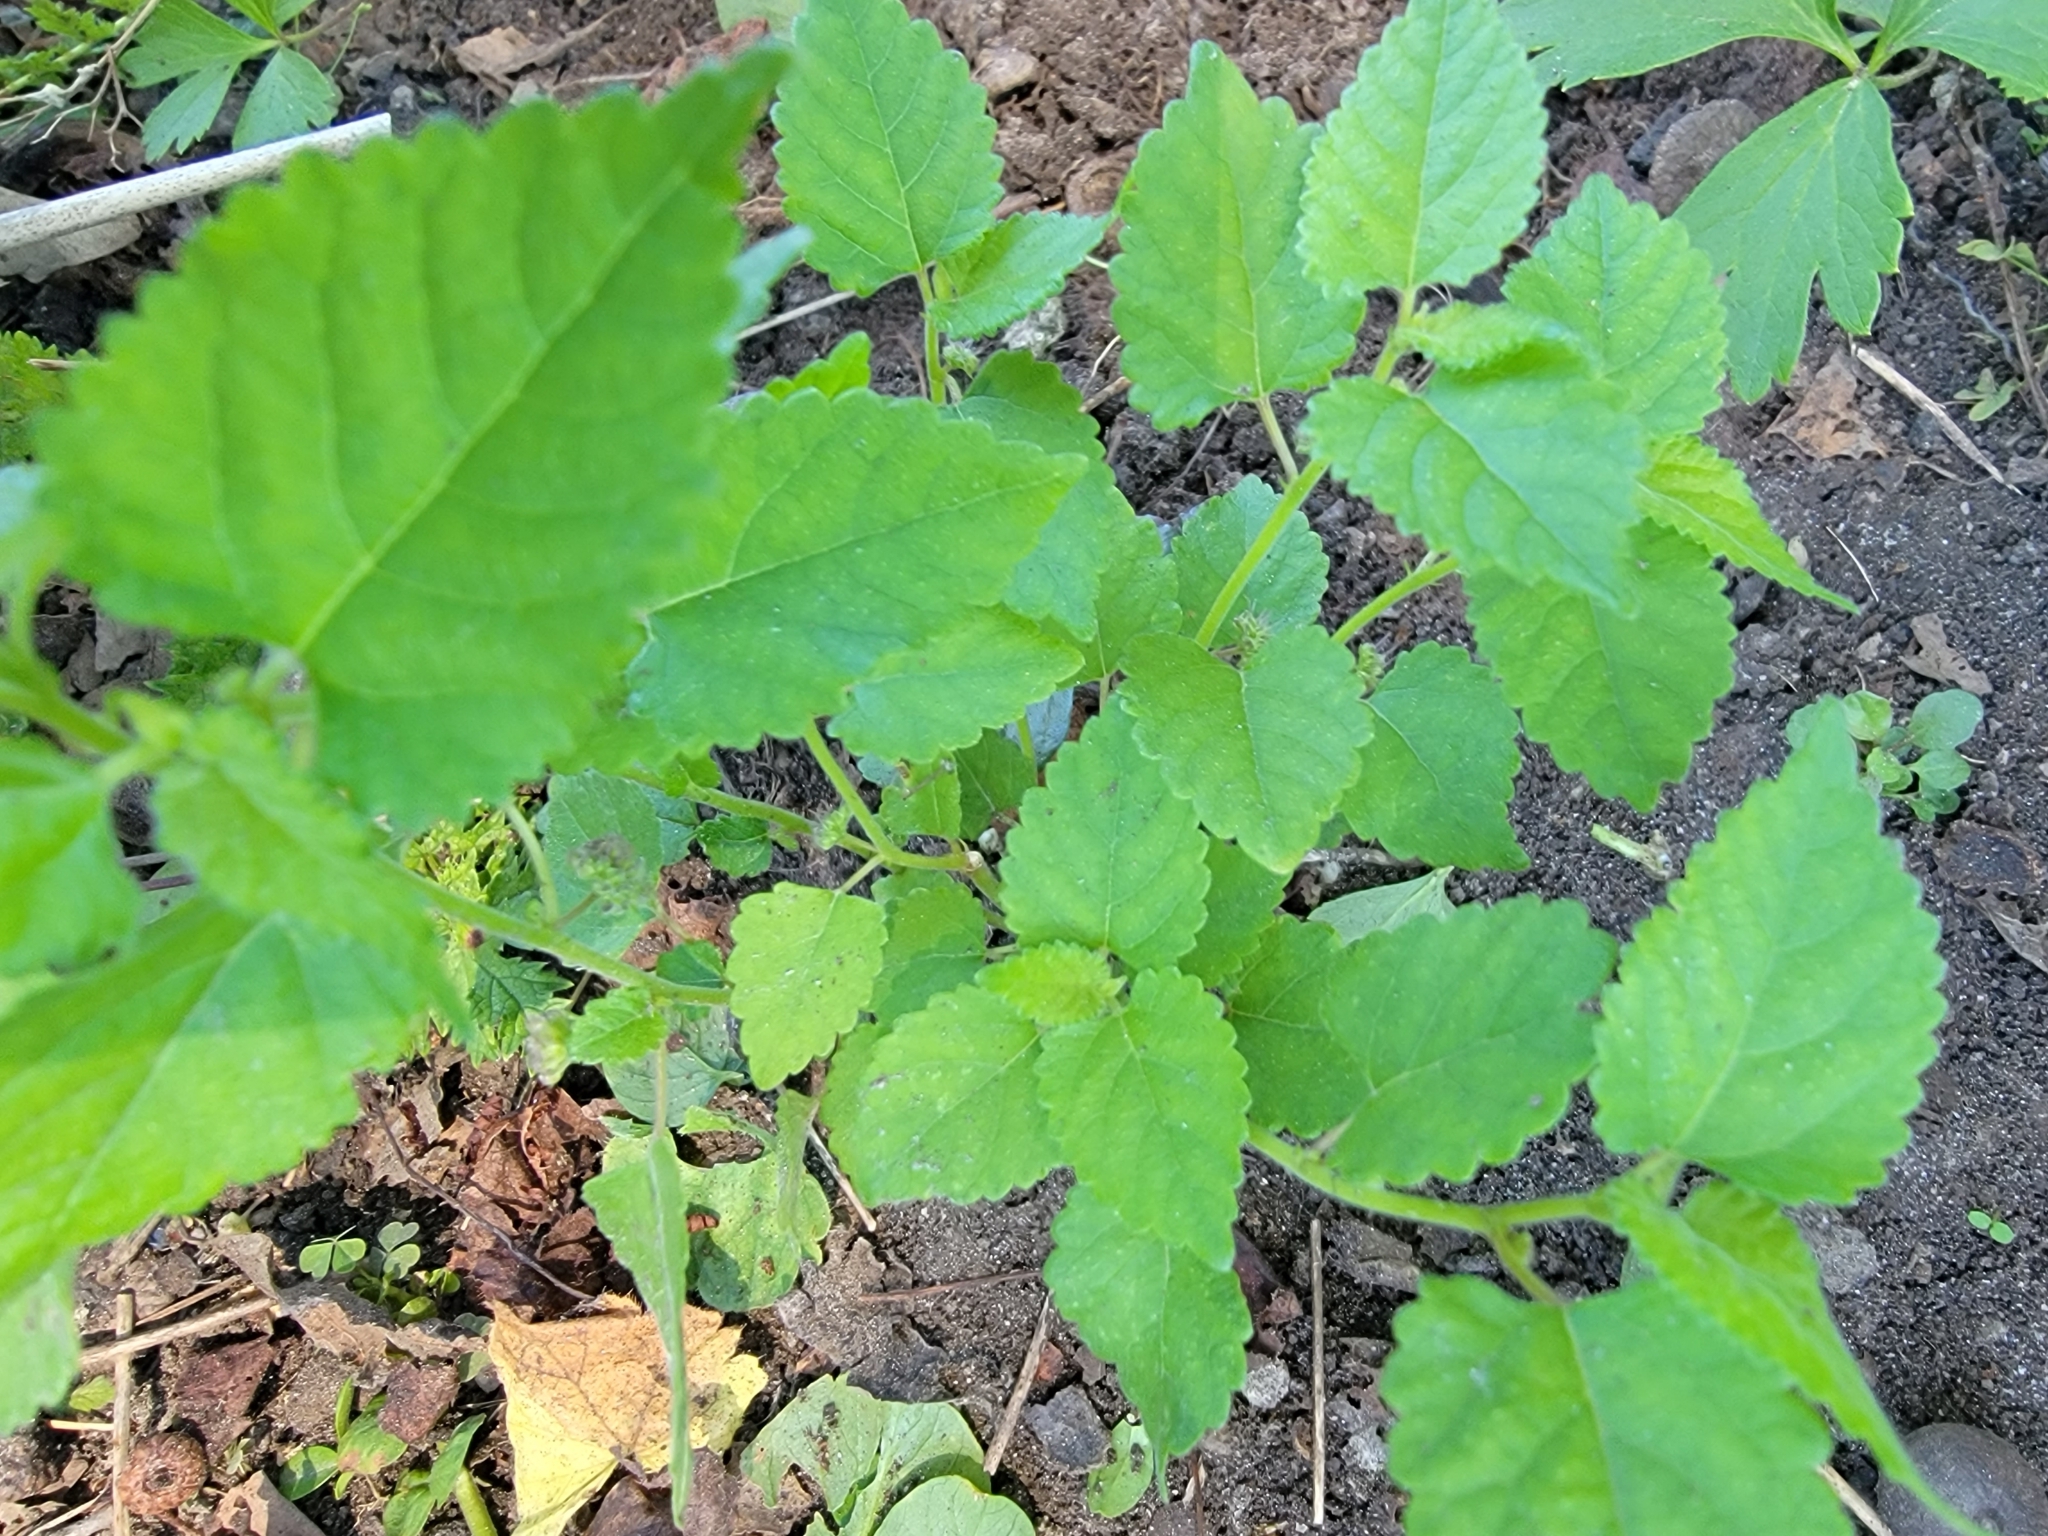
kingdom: Plantae
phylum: Tracheophyta
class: Magnoliopsida
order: Rosales
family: Moraceae
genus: Fatoua
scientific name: Fatoua villosa
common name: Hairy crabweed
